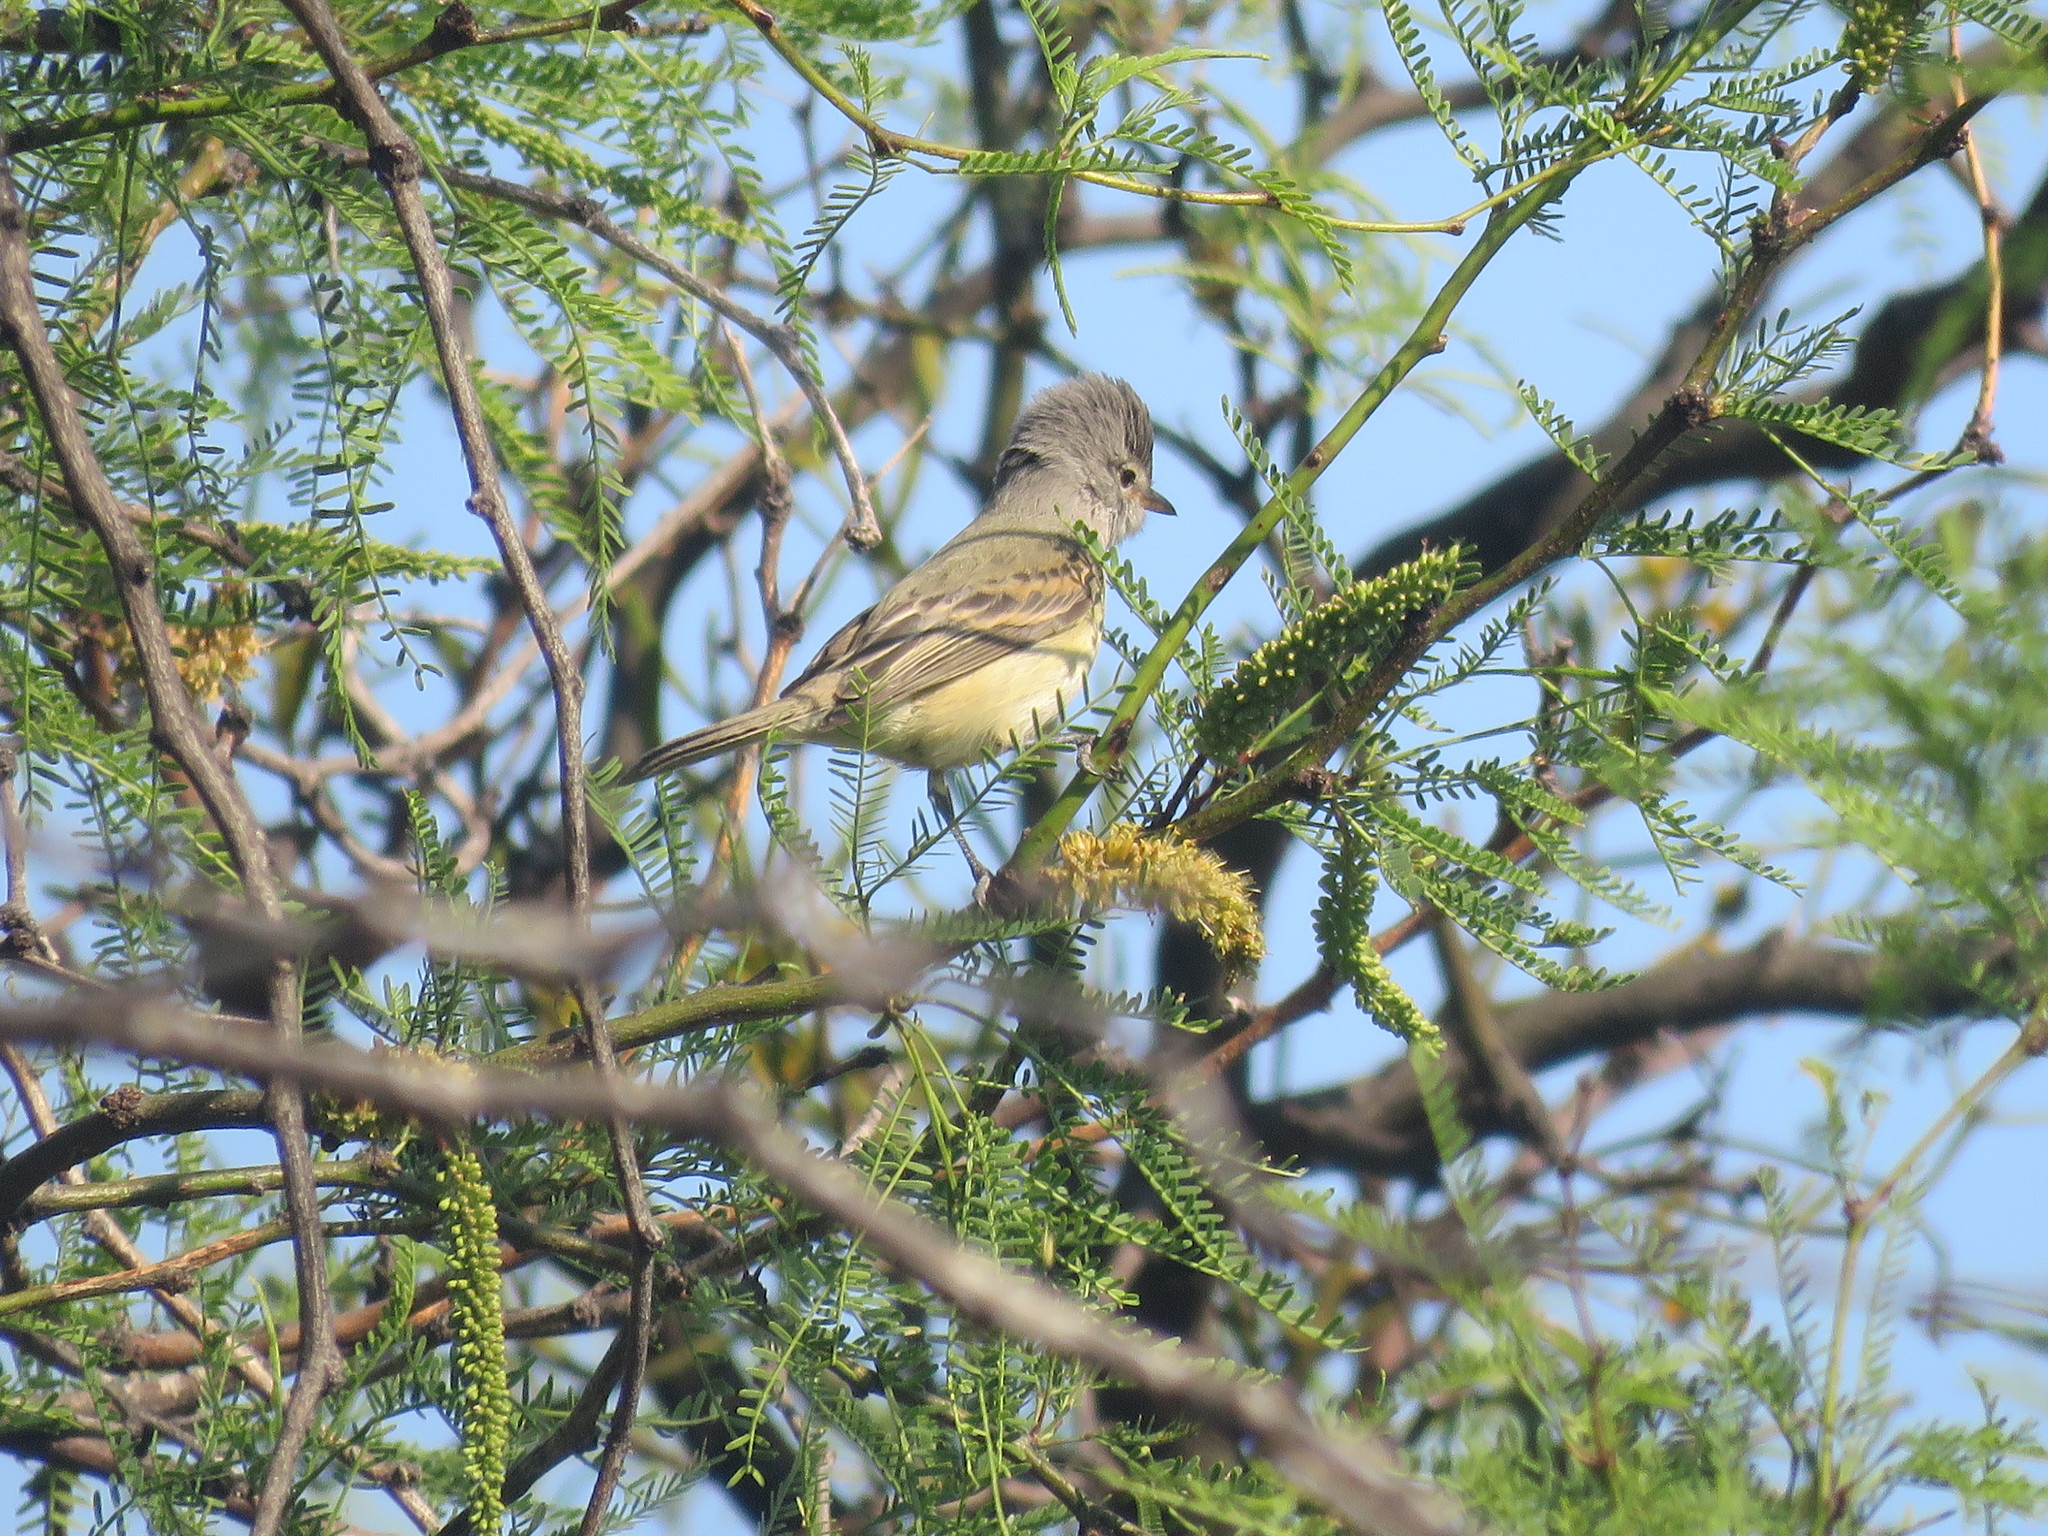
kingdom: Animalia
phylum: Chordata
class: Aves
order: Passeriformes
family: Tyrannidae
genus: Camptostoma
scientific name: Camptostoma obsoletum
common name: Southern beardless-tyrannulet
